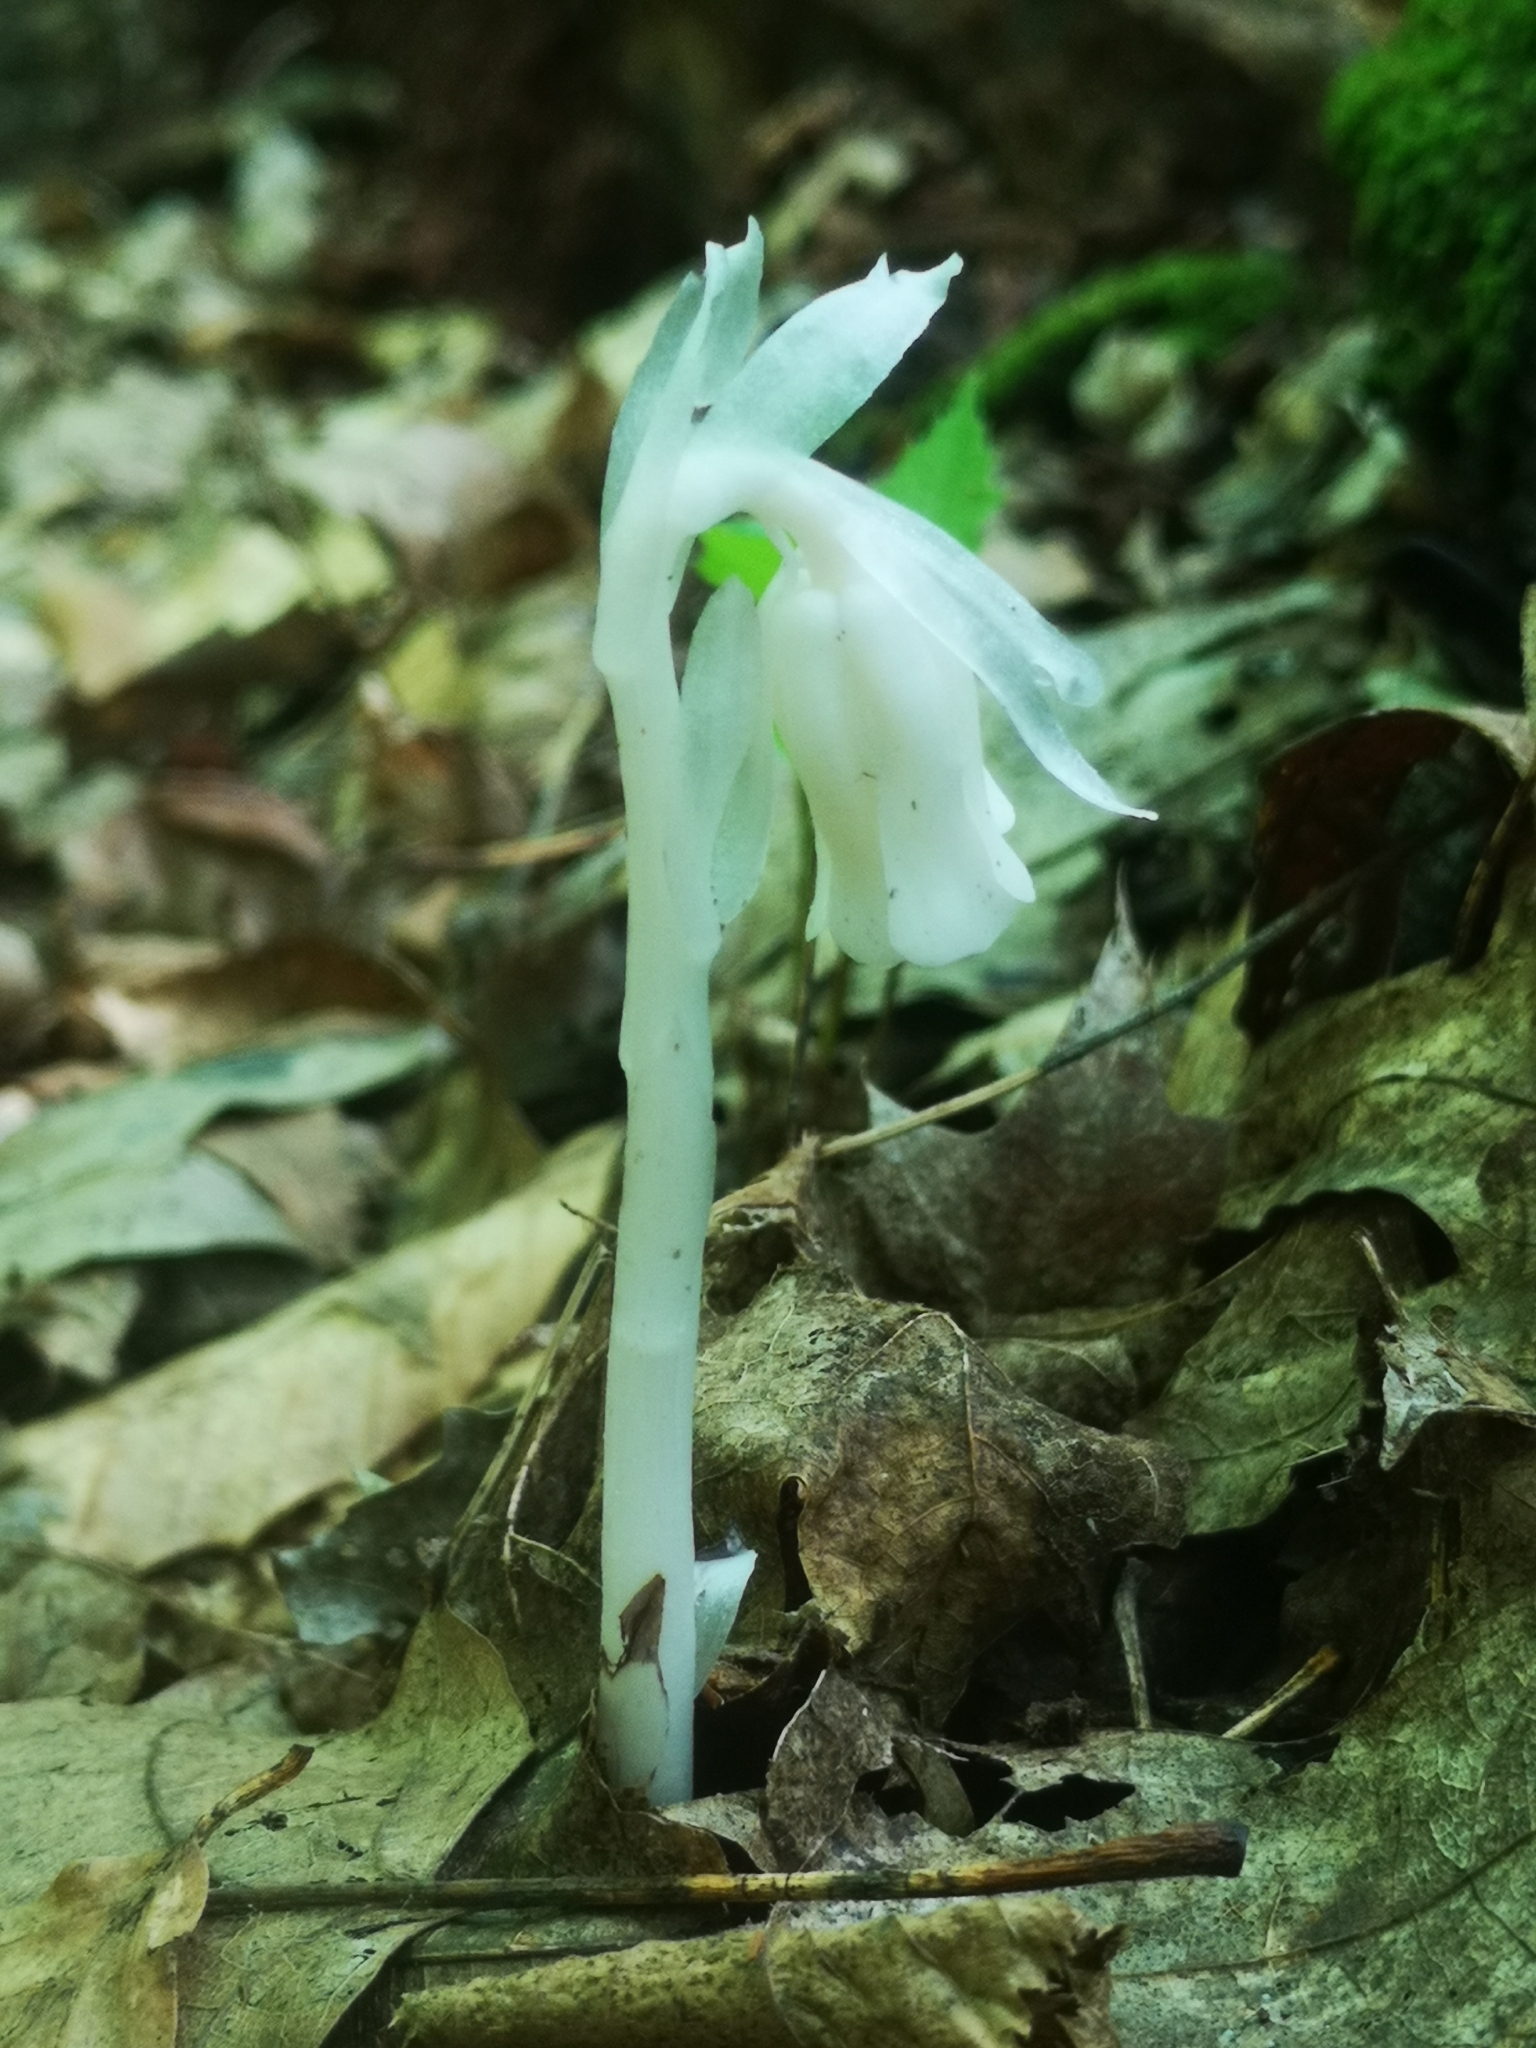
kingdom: Plantae
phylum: Tracheophyta
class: Magnoliopsida
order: Ericales
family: Ericaceae
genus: Monotropa
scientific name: Monotropa uniflora
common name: Convulsion root
